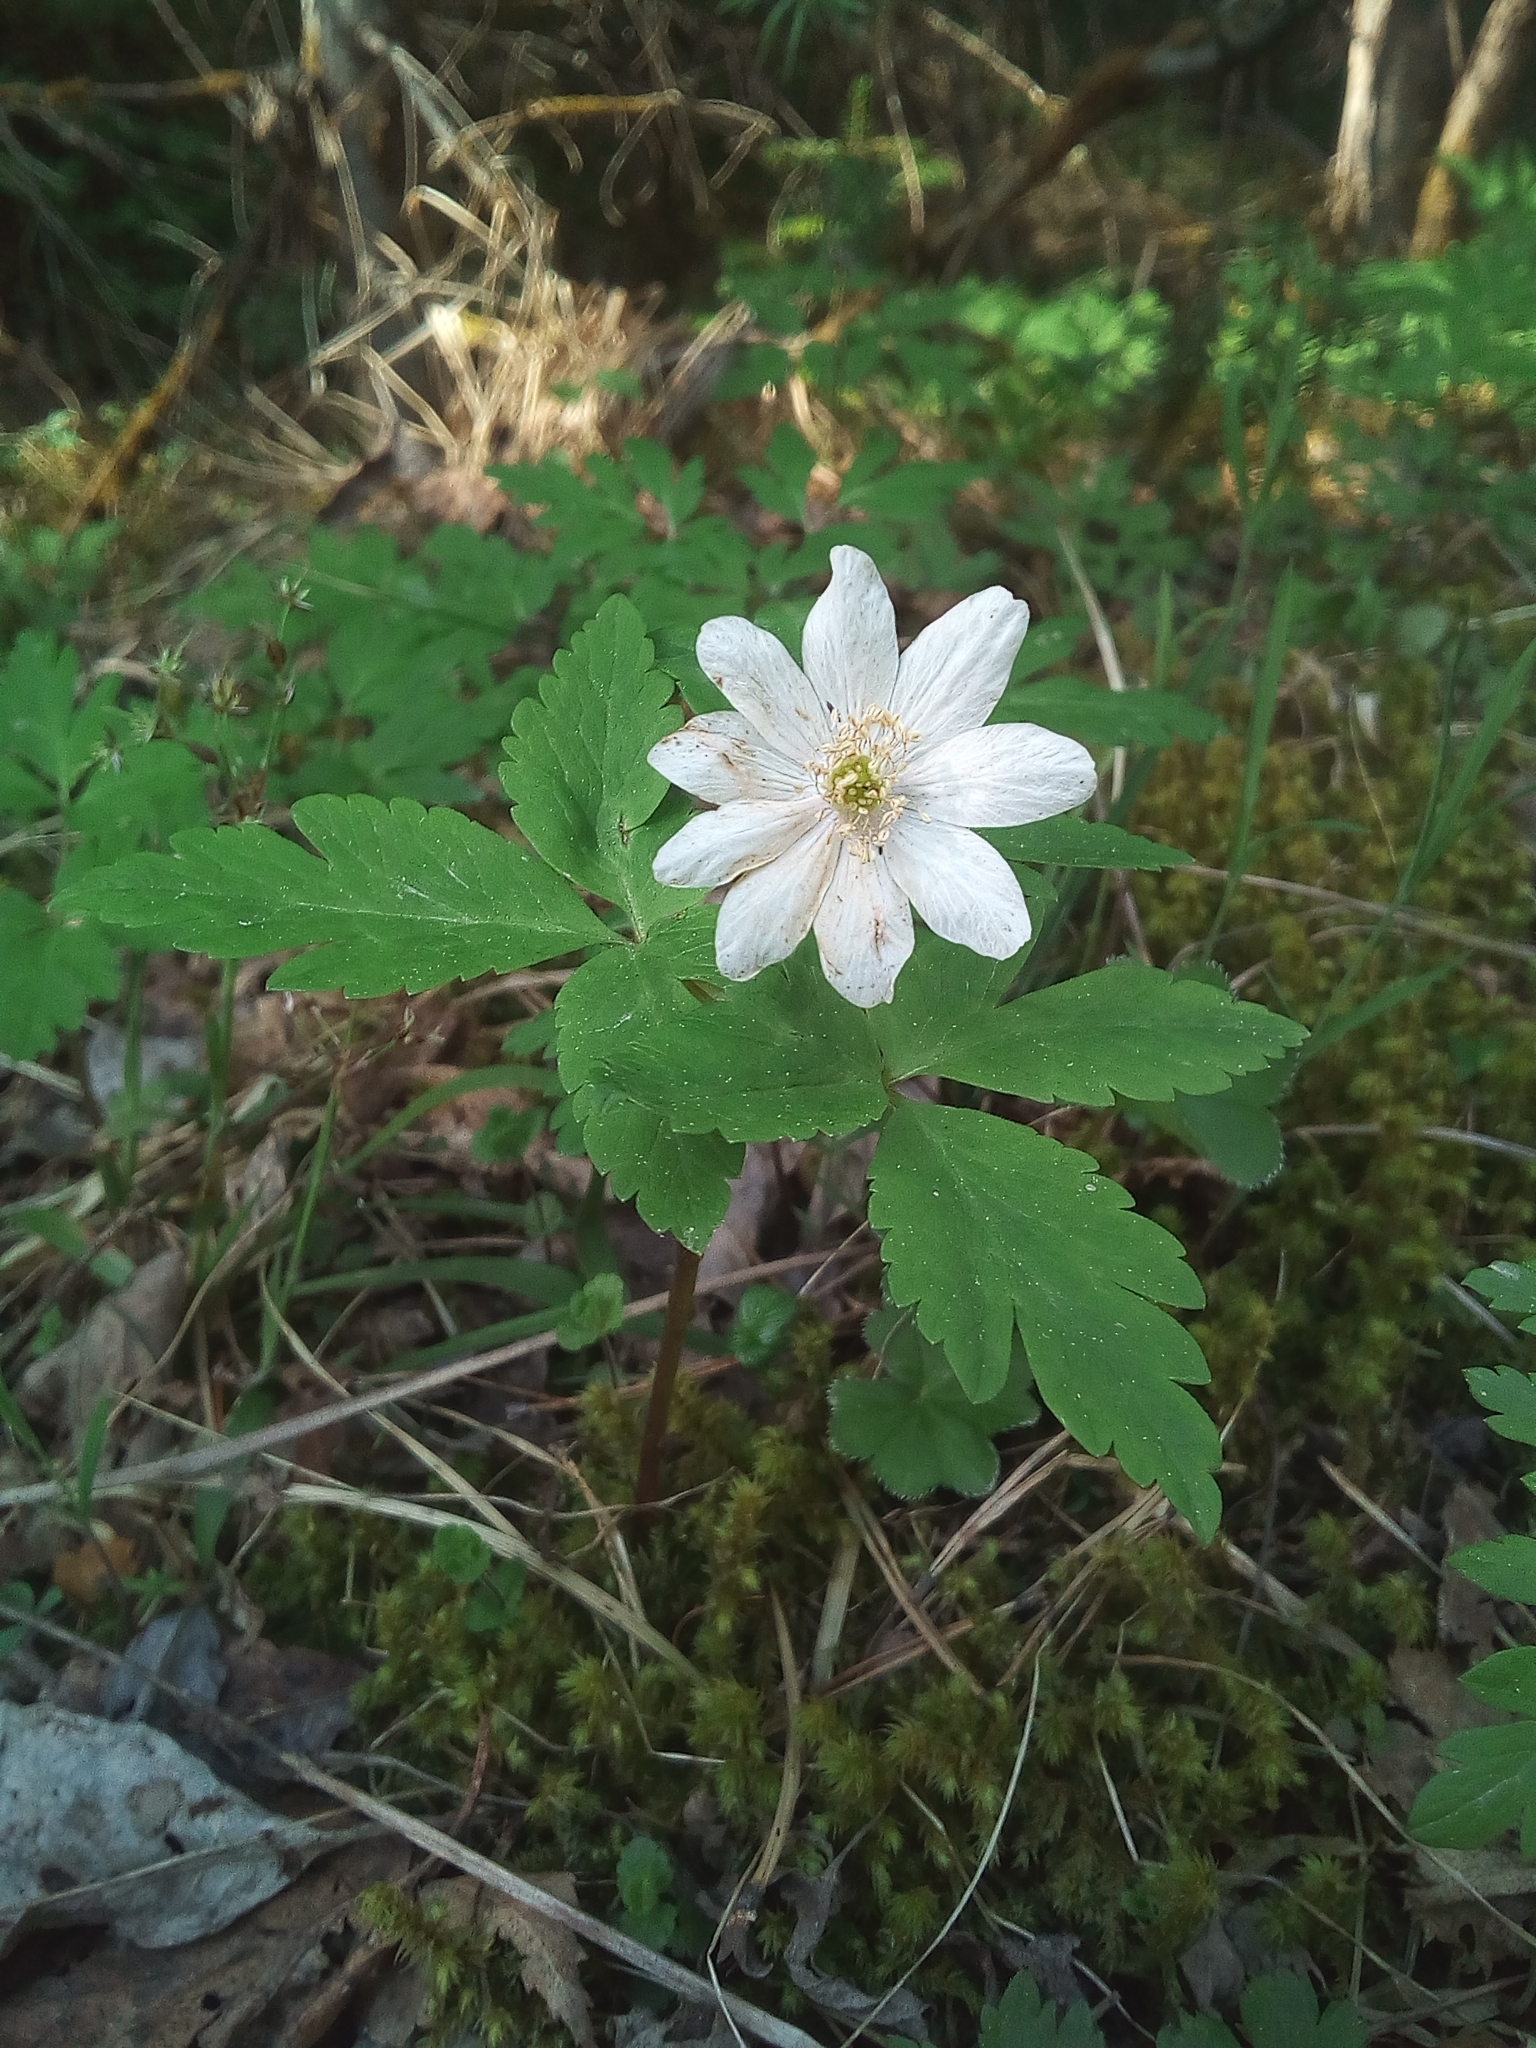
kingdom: Plantae
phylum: Tracheophyta
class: Magnoliopsida
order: Ranunculales
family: Ranunculaceae
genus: Anemone
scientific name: Anemone altaica
